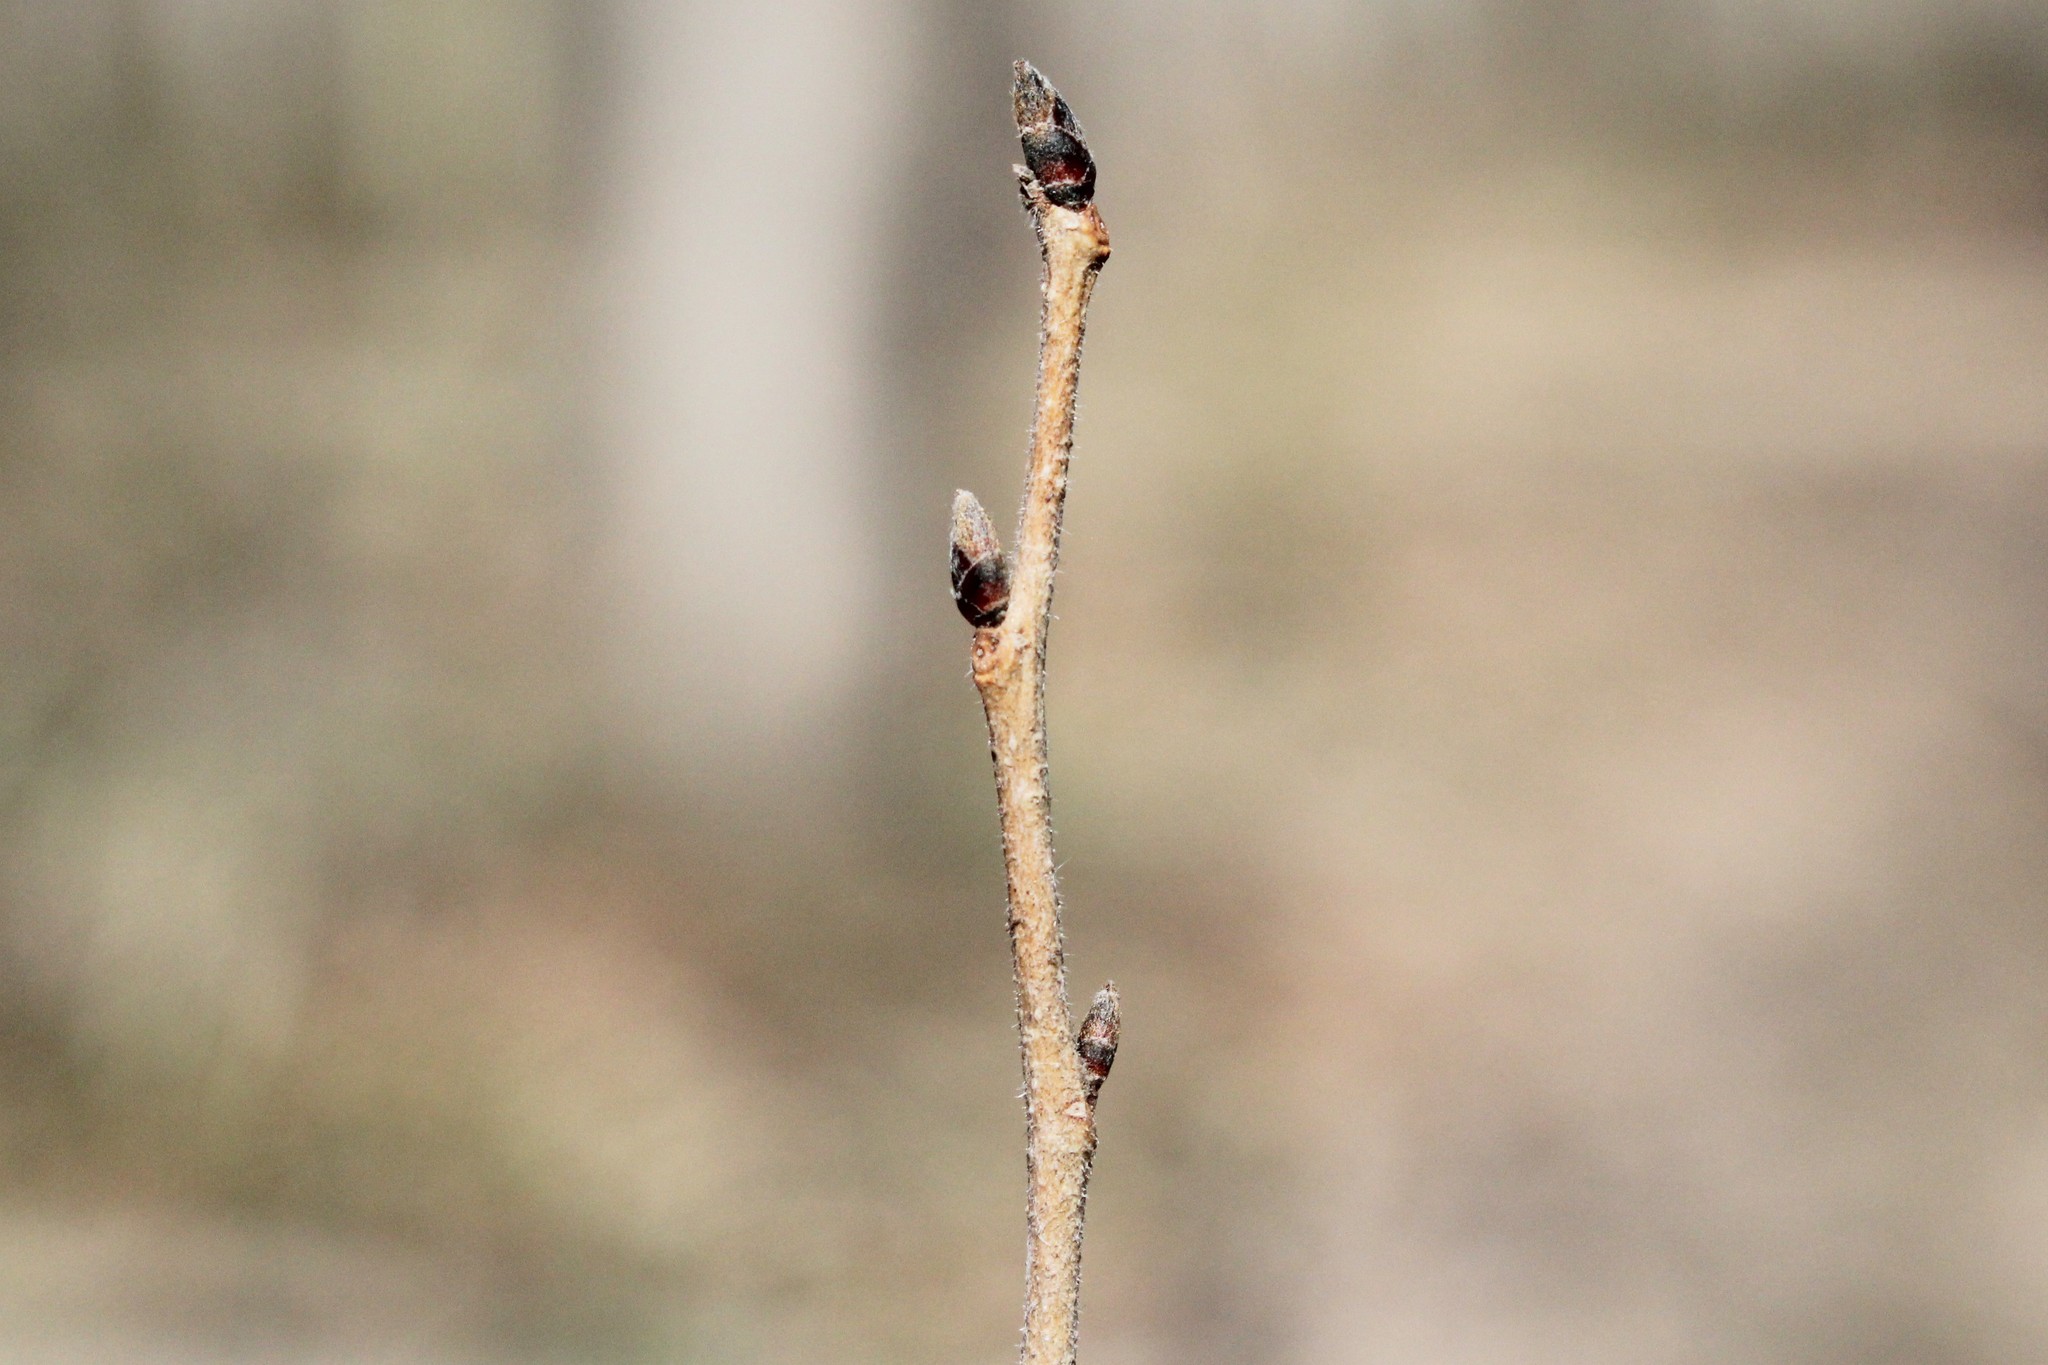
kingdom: Plantae
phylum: Tracheophyta
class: Magnoliopsida
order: Rosales
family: Ulmaceae
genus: Ulmus
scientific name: Ulmus rubra
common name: Slippery elm
